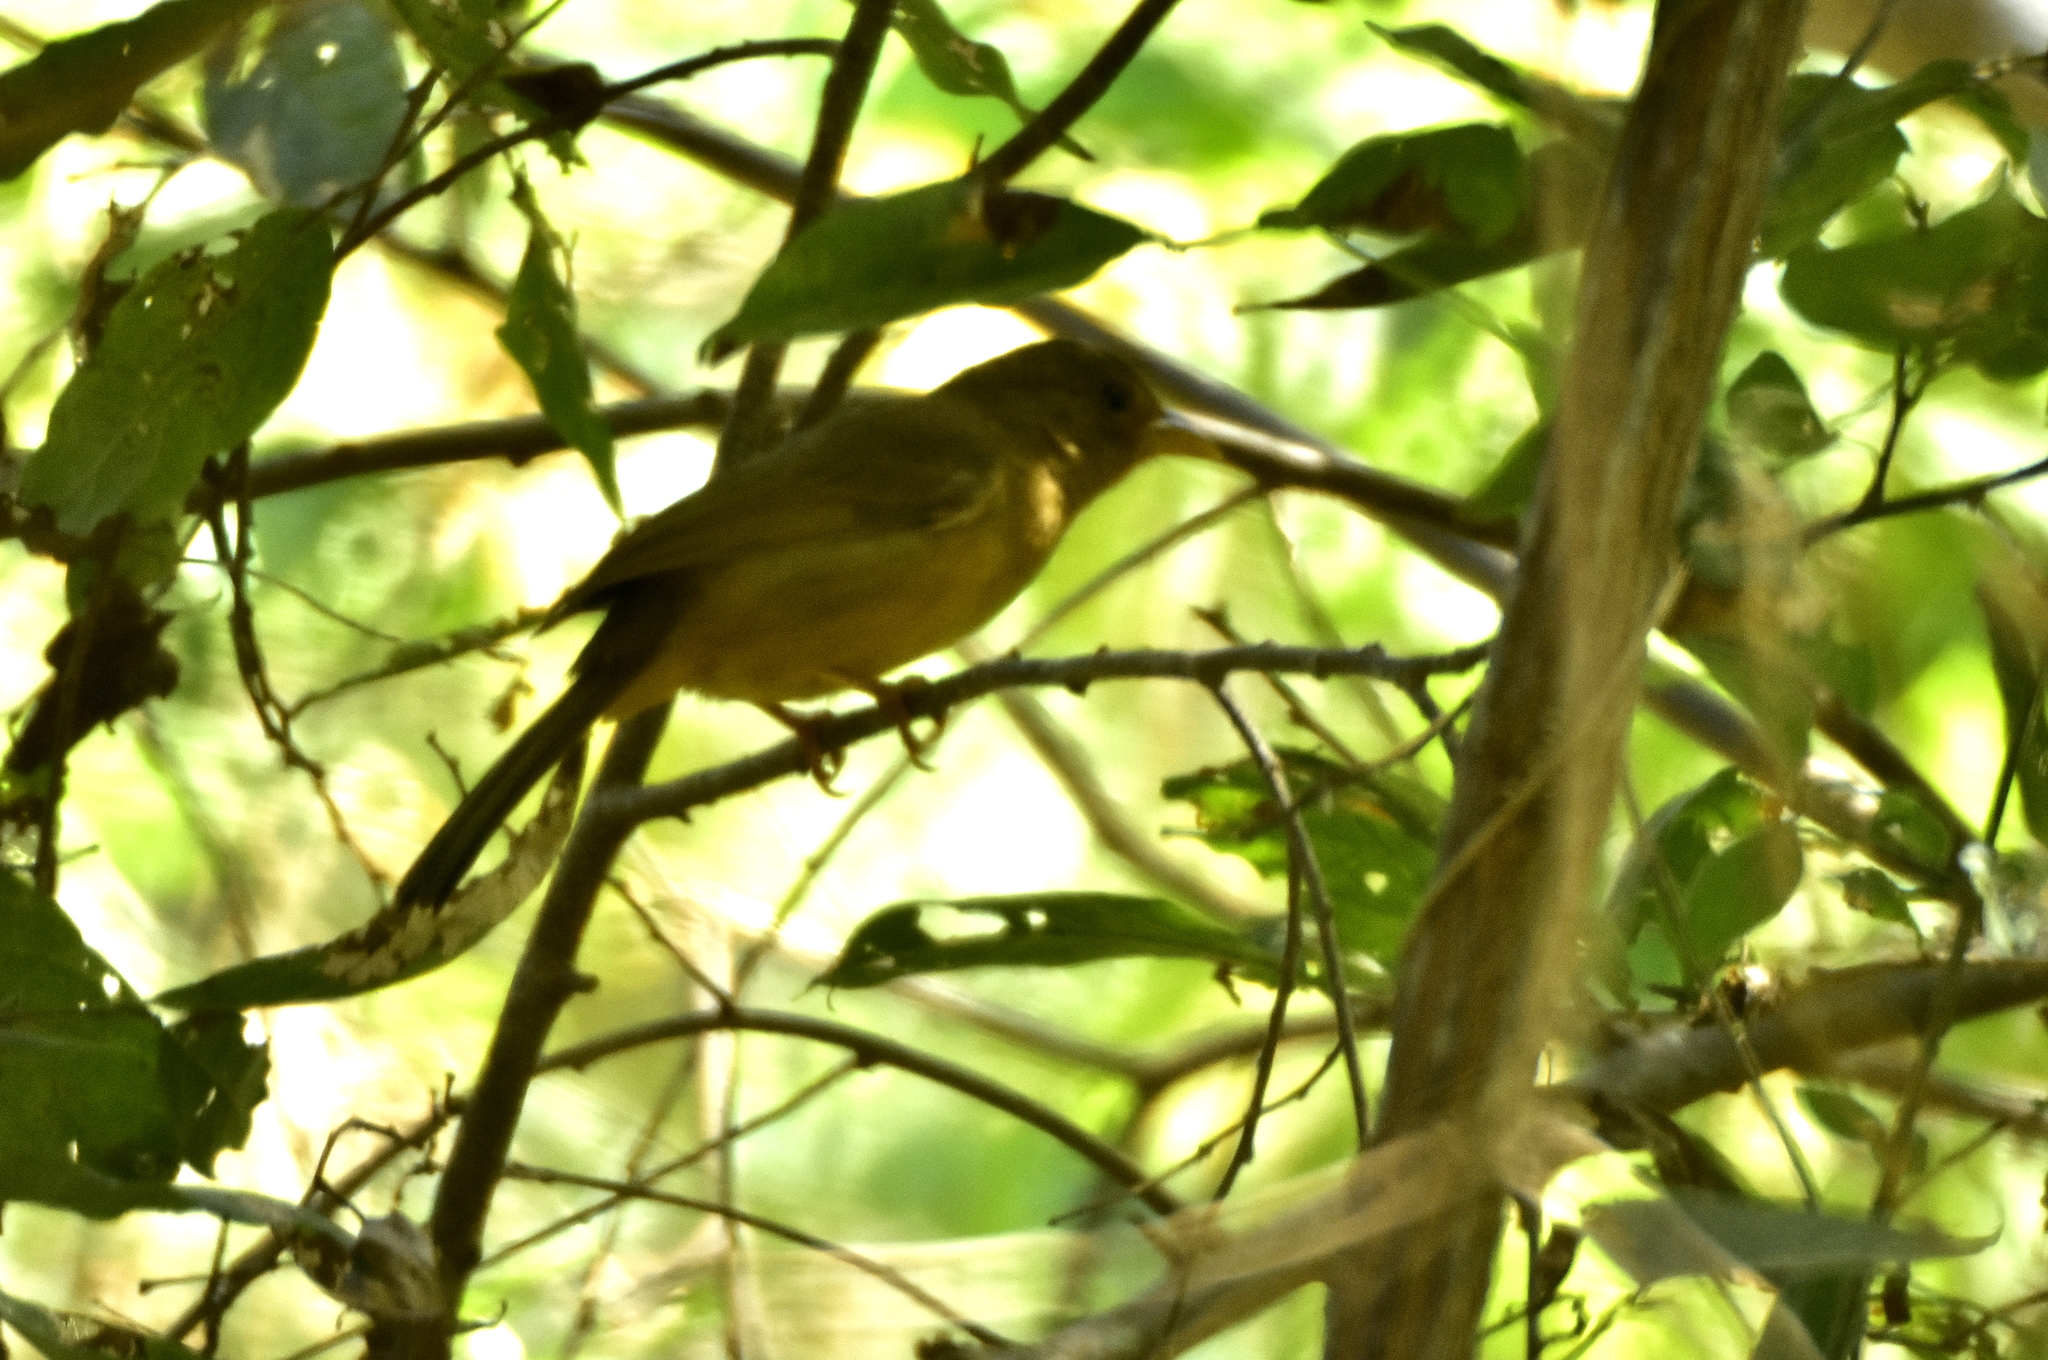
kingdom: Animalia
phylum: Chordata
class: Aves
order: Passeriformes
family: Cardinalidae
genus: Piranga
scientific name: Piranga rubra
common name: Summer tanager
